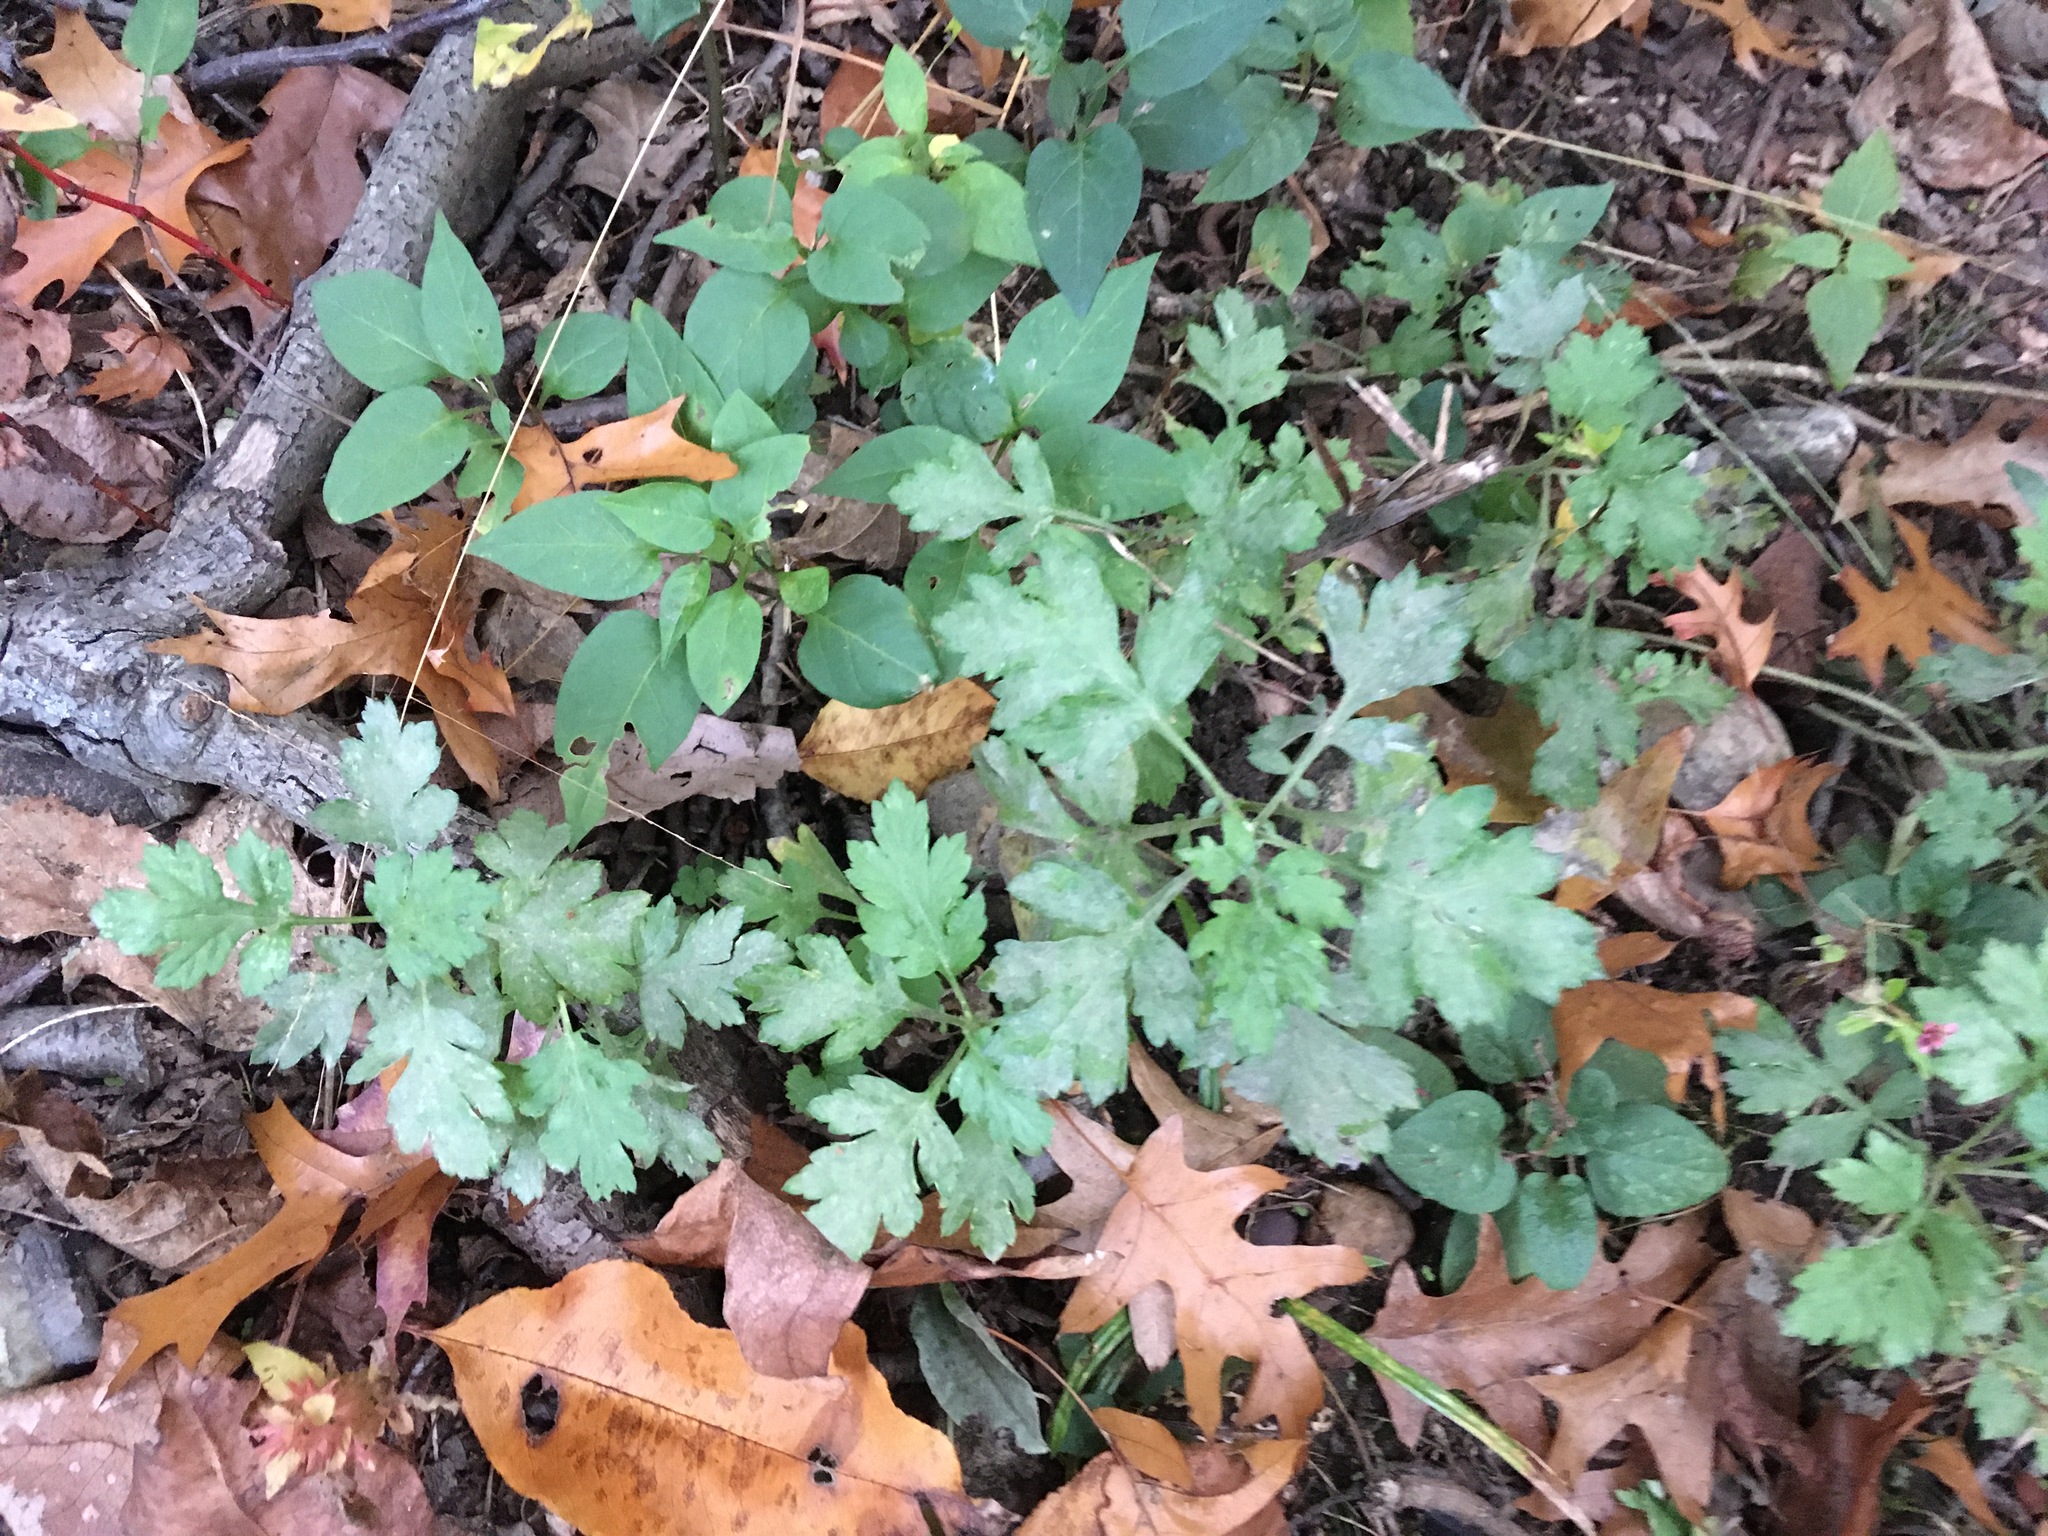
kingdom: Plantae
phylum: Tracheophyta
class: Magnoliopsida
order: Asterales
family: Asteraceae
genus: Artemisia
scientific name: Artemisia vulgaris
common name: Mugwort
